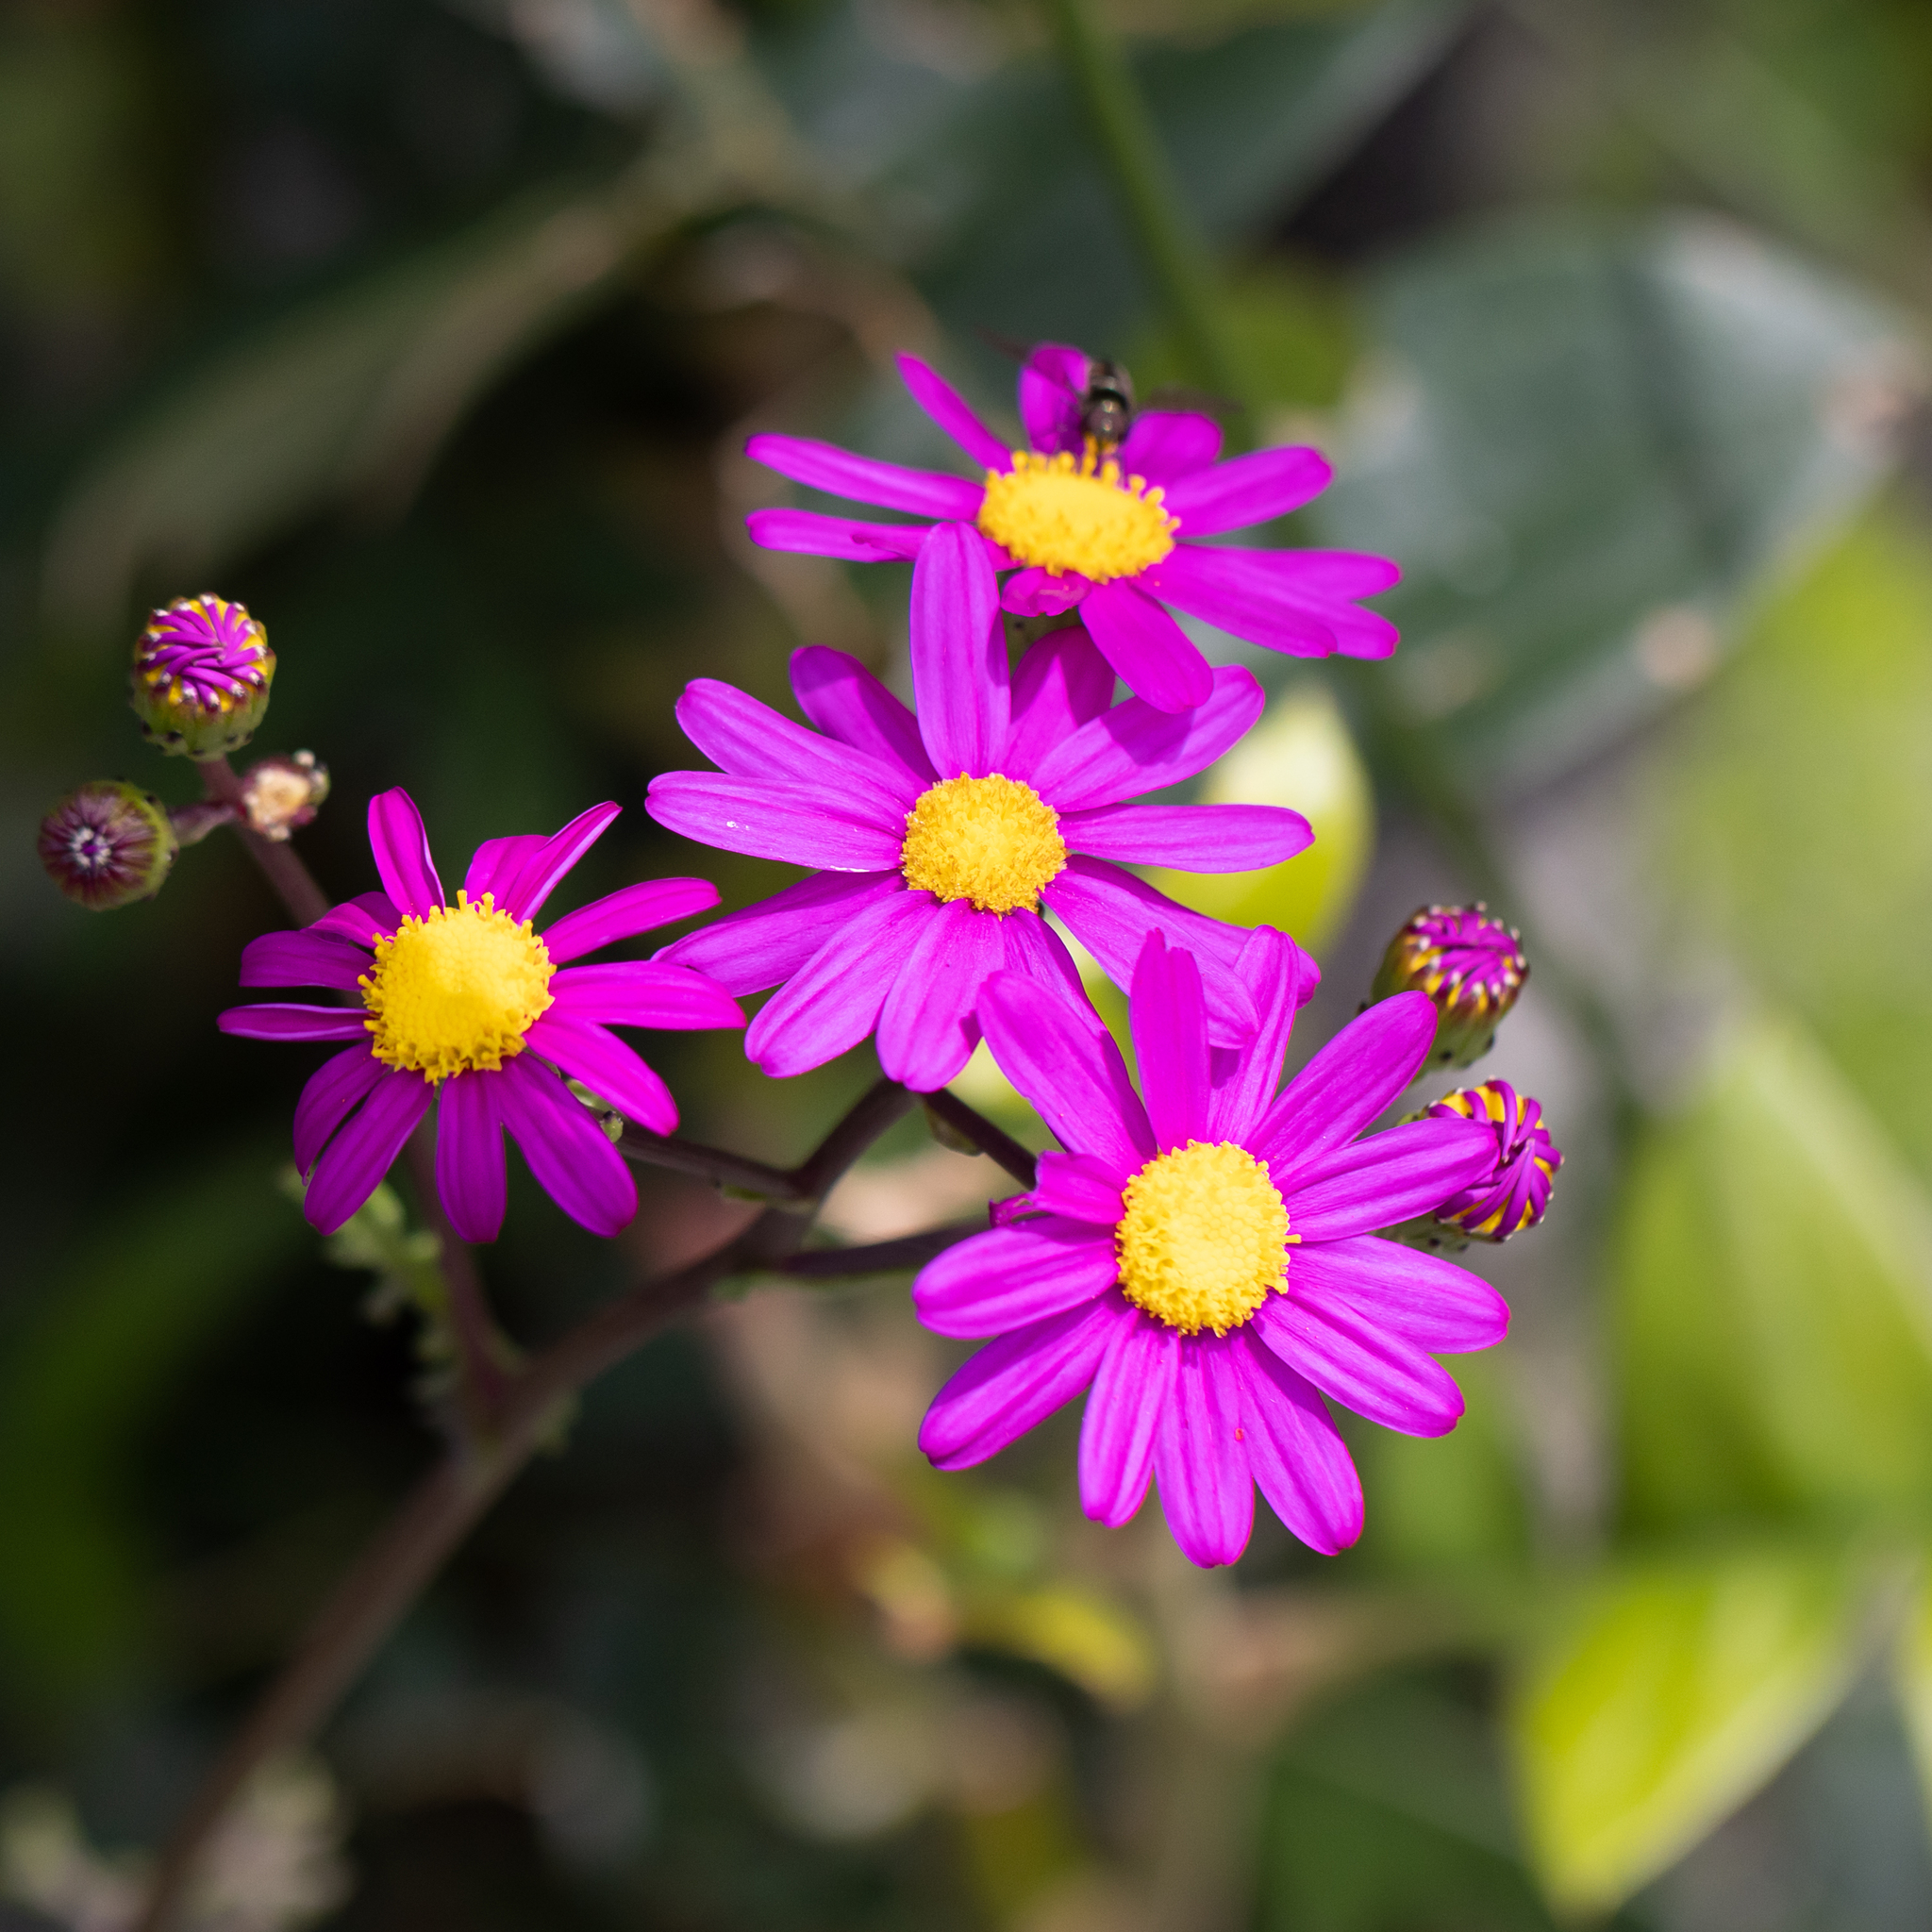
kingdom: Plantae
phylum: Tracheophyta
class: Magnoliopsida
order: Asterales
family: Asteraceae
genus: Senecio
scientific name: Senecio elegans
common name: Purple groundsel
